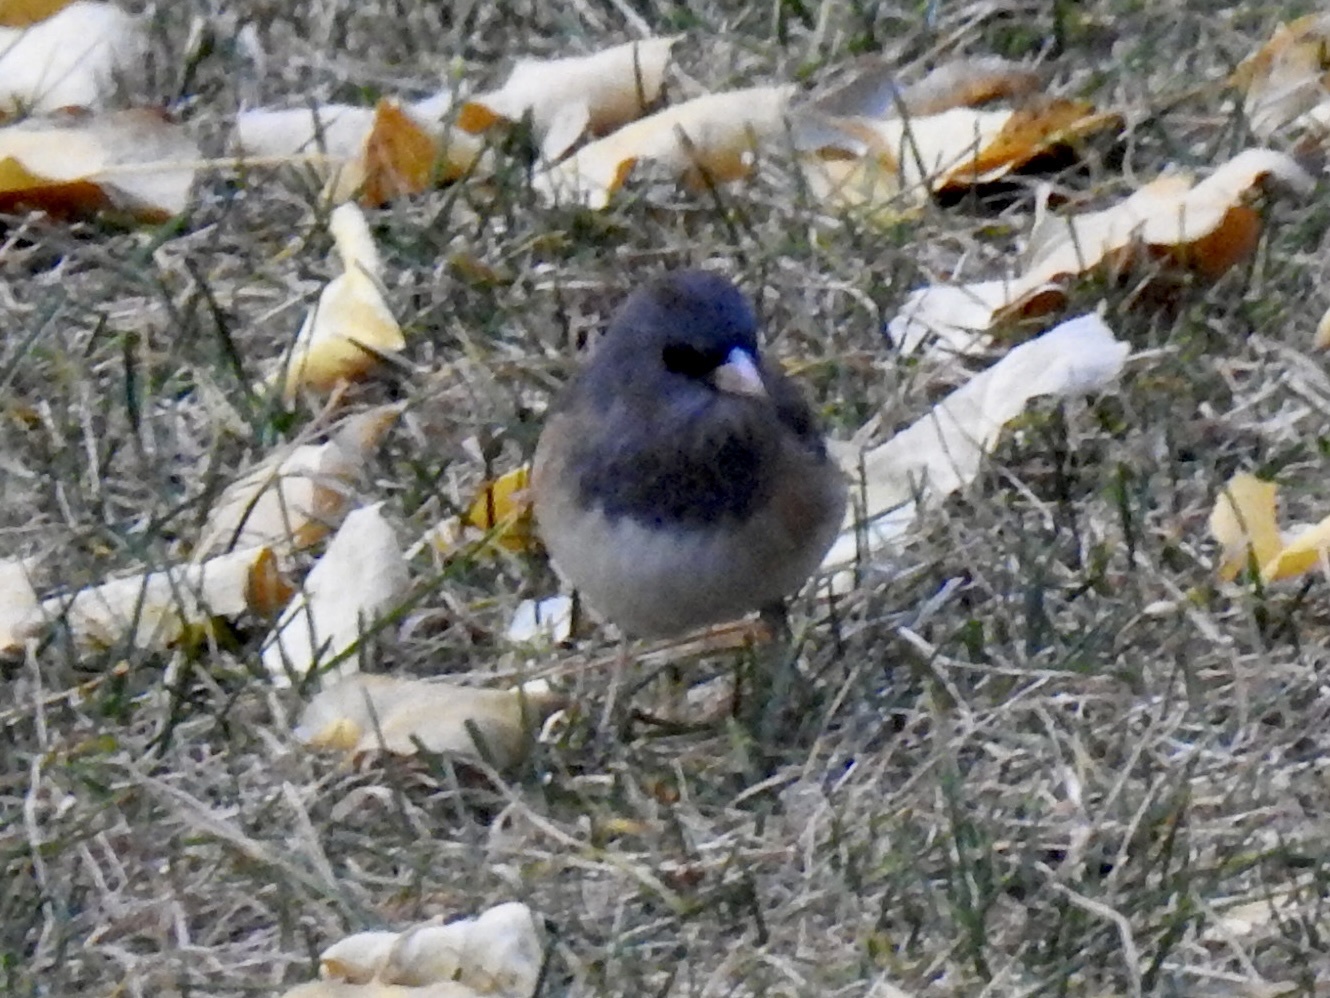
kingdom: Animalia
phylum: Chordata
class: Aves
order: Passeriformes
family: Passerellidae
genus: Junco
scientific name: Junco hyemalis
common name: Dark-eyed junco
